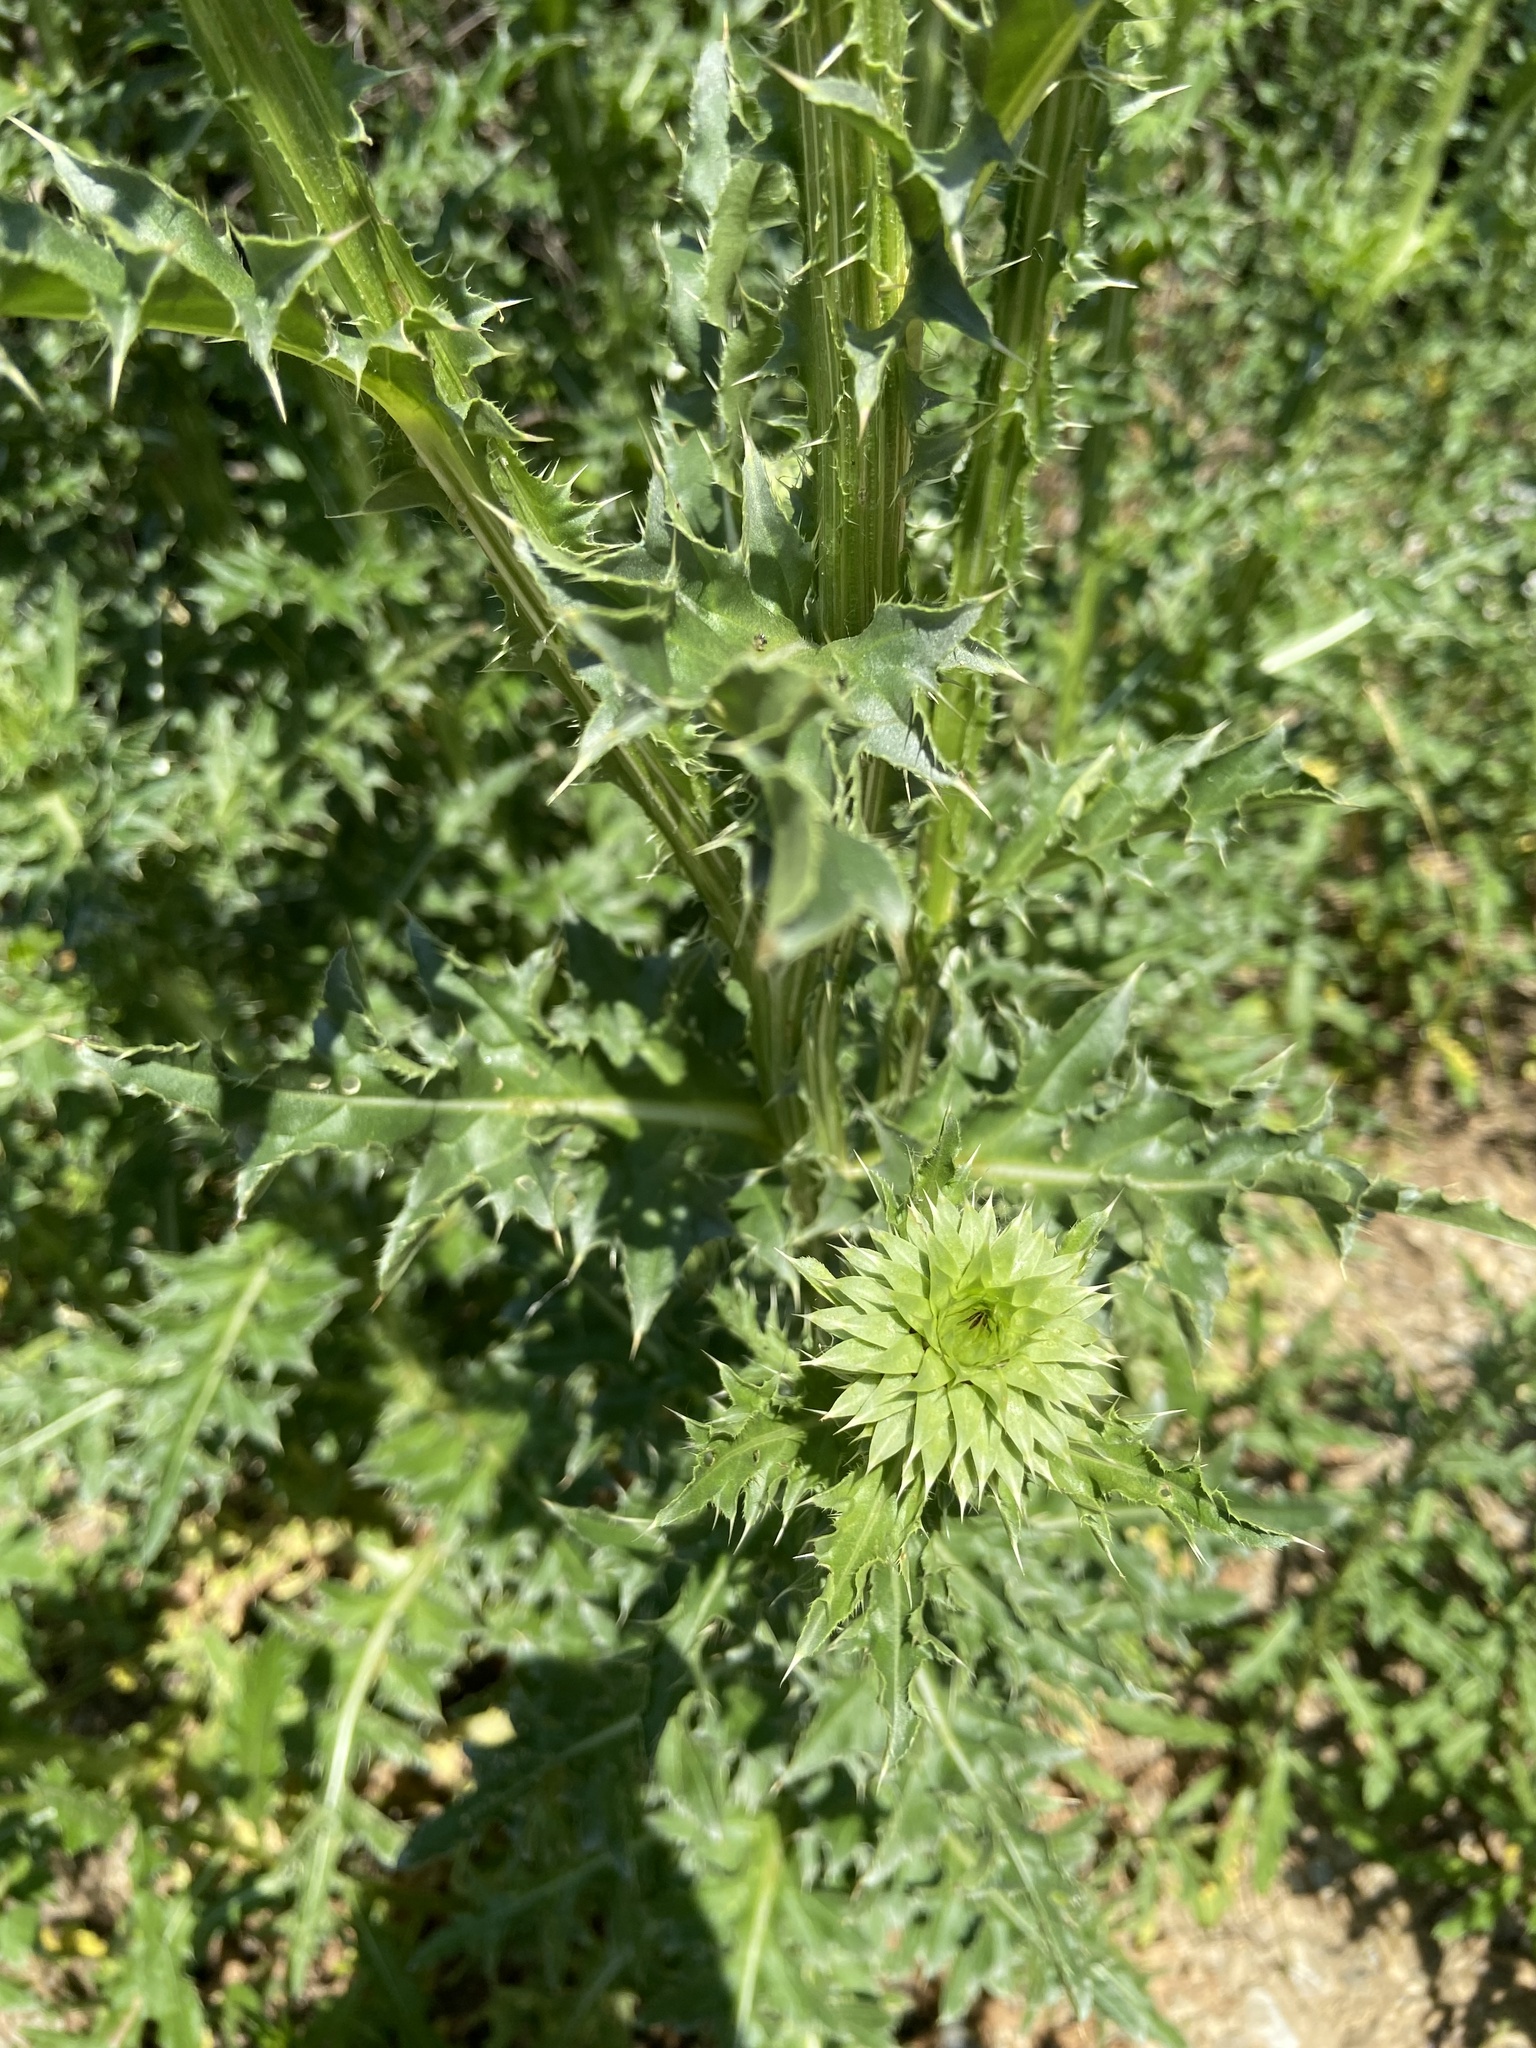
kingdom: Plantae
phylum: Tracheophyta
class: Magnoliopsida
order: Asterales
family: Asteraceae
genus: Carduus
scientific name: Carduus nutans
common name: Musk thistle
